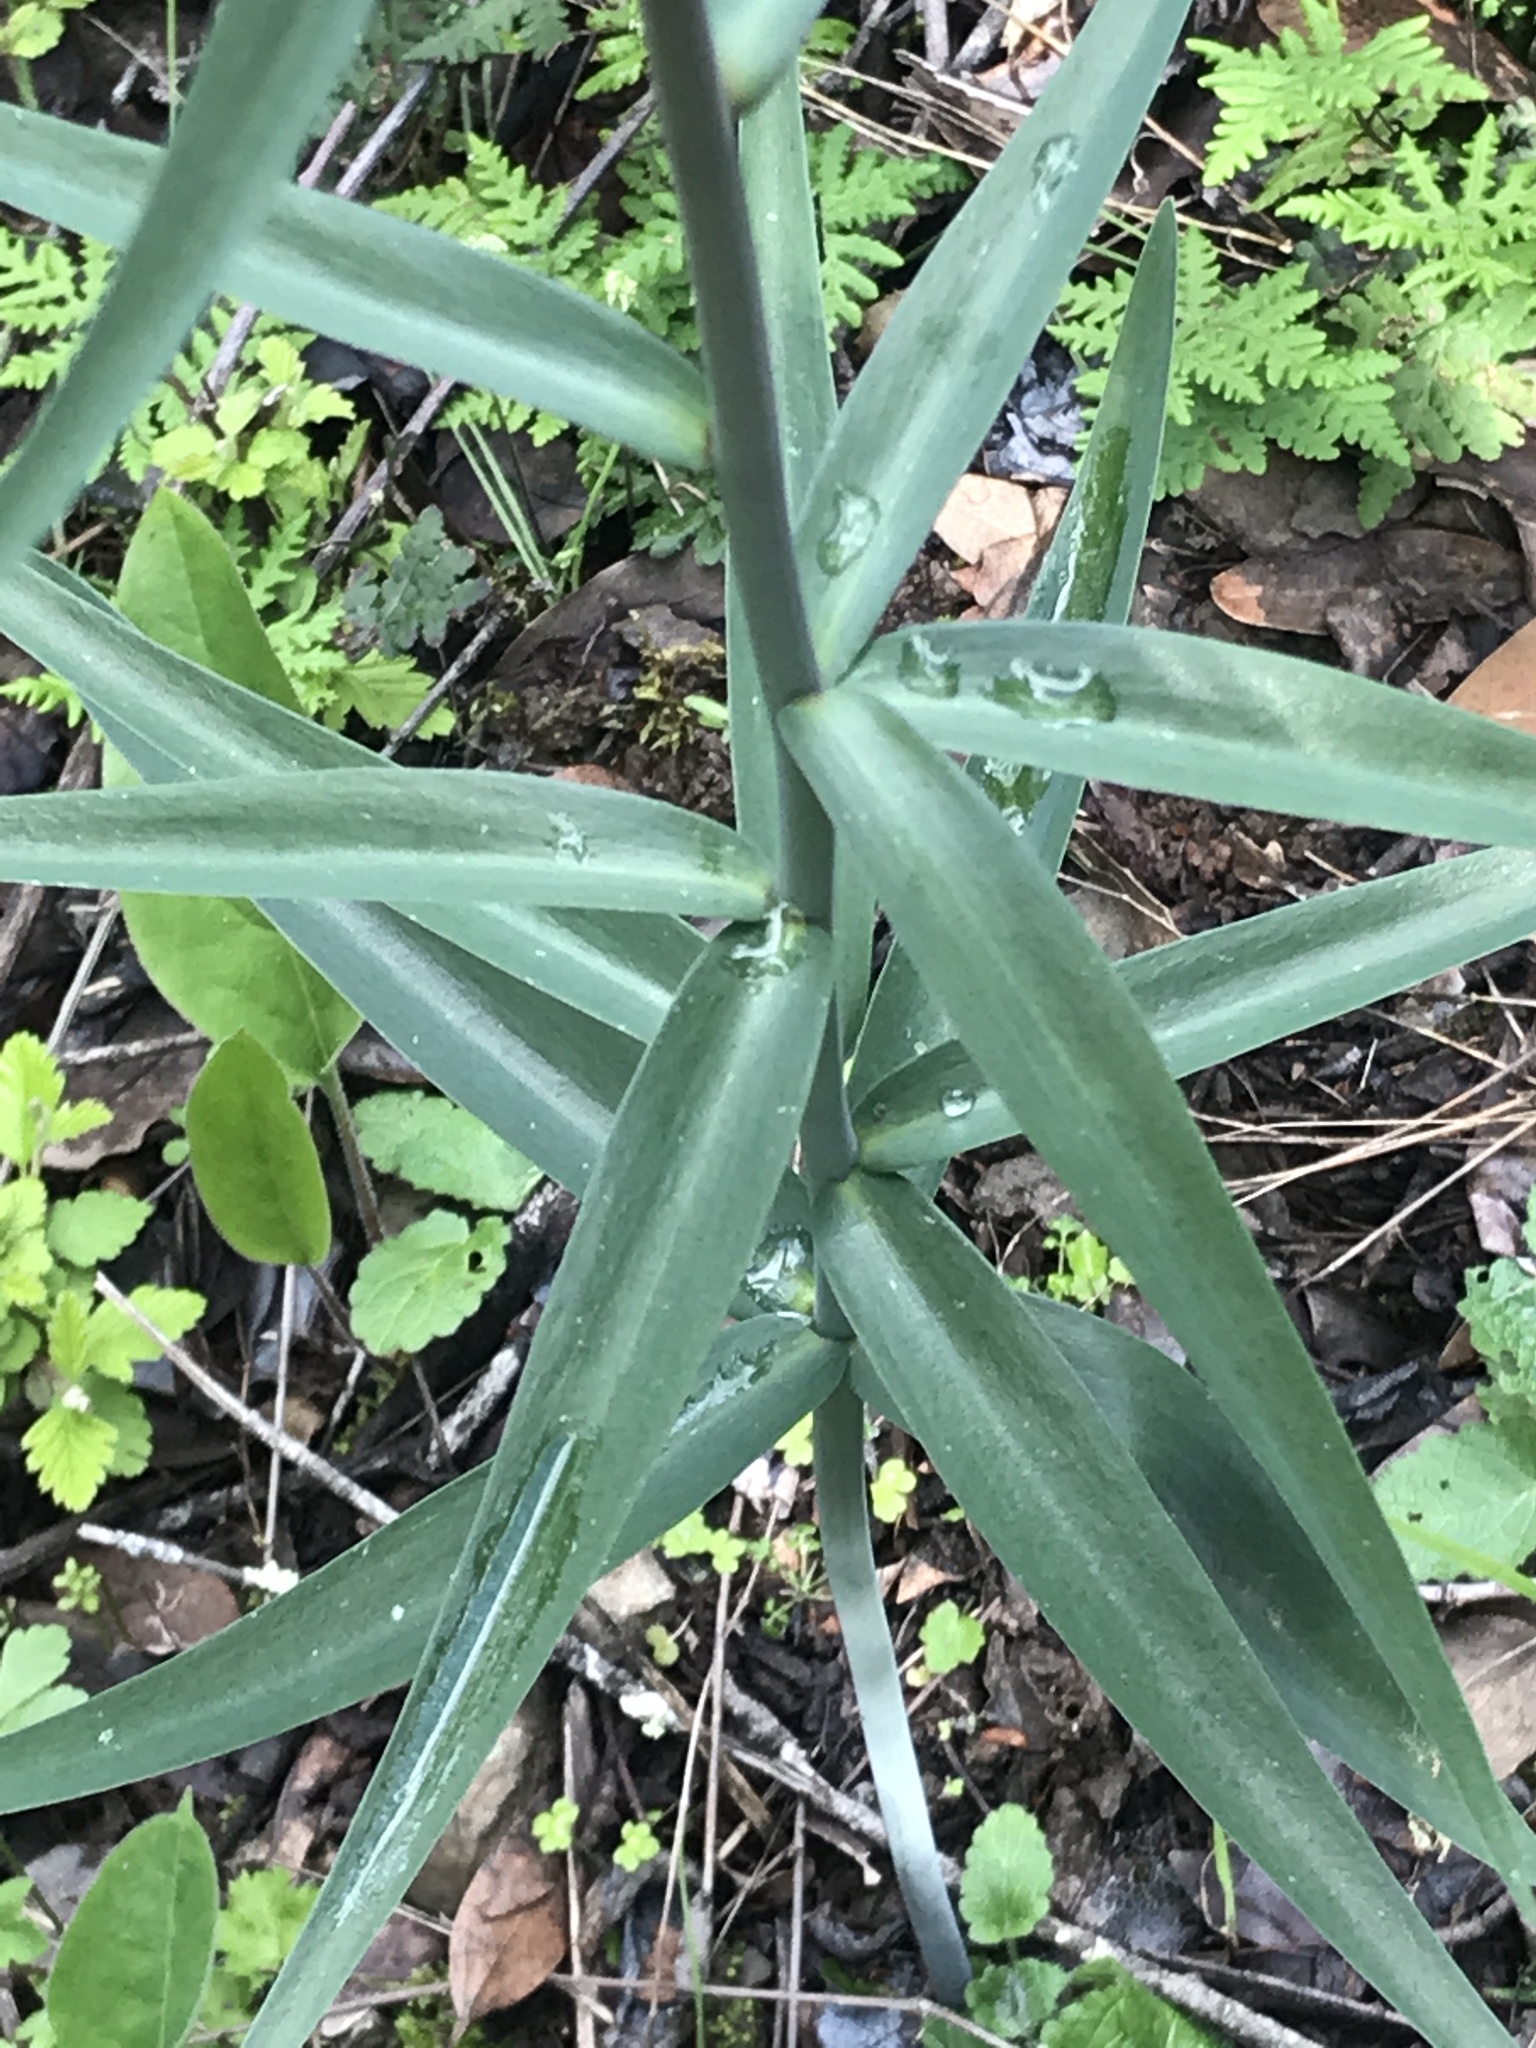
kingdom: Plantae
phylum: Tracheophyta
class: Liliopsida
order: Liliales
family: Liliaceae
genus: Fritillaria
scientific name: Fritillaria affinis
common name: Ojai fritillary
